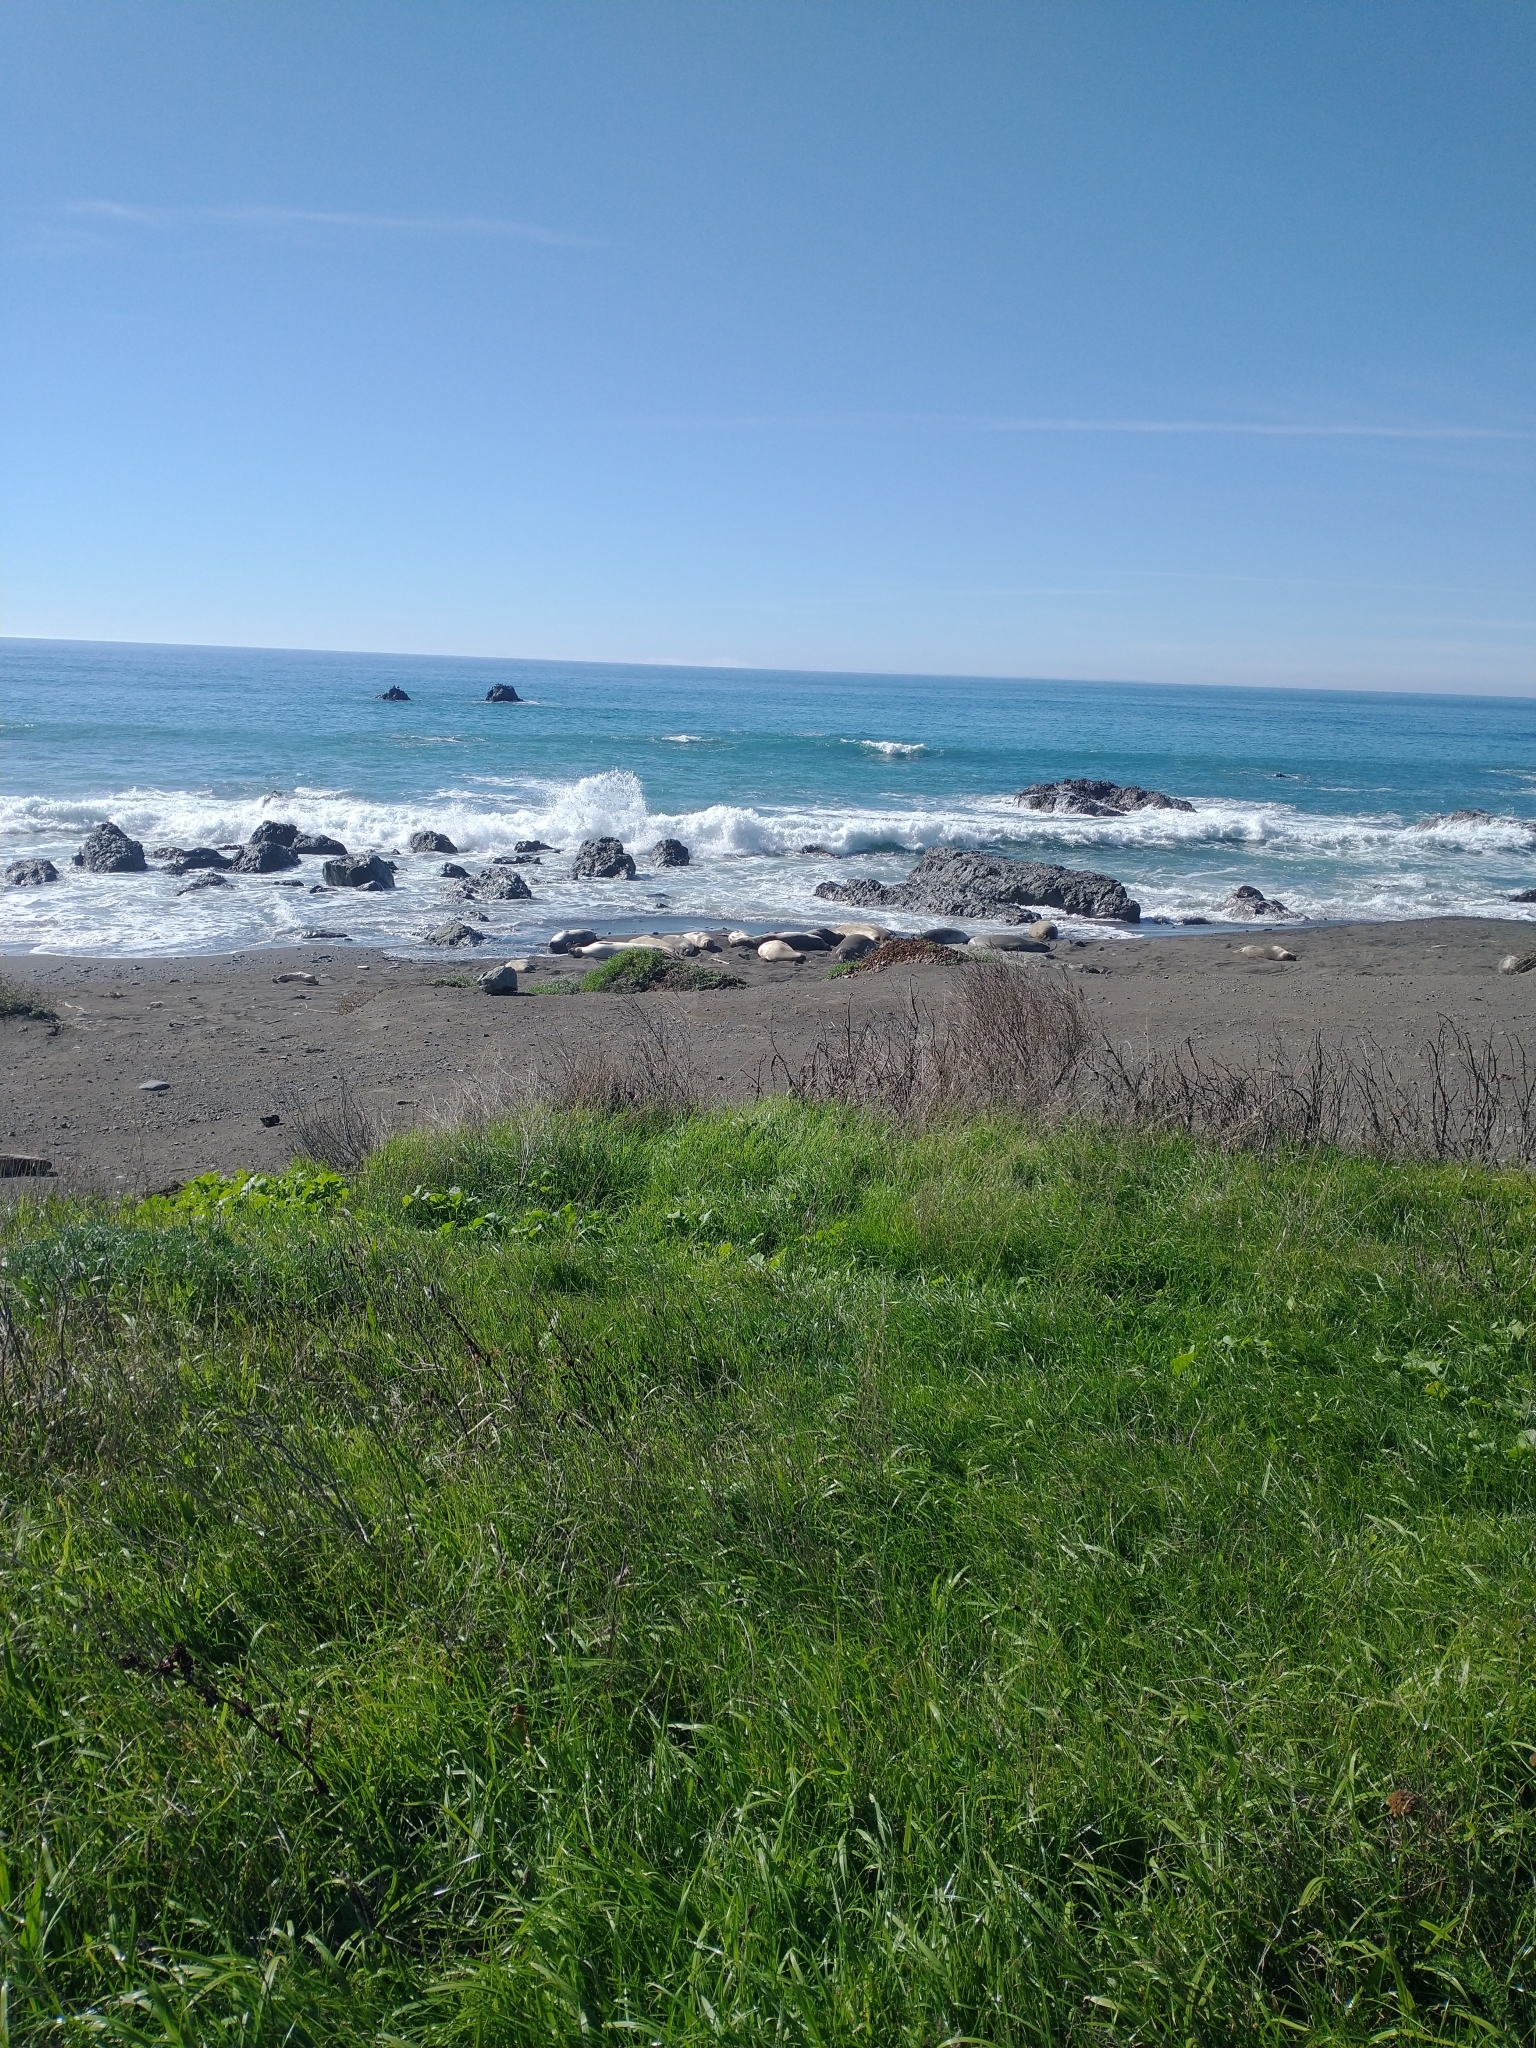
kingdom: Animalia
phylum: Chordata
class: Mammalia
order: Carnivora
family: Phocidae
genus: Mirounga
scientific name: Mirounga angustirostris
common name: Northern elephant seal
